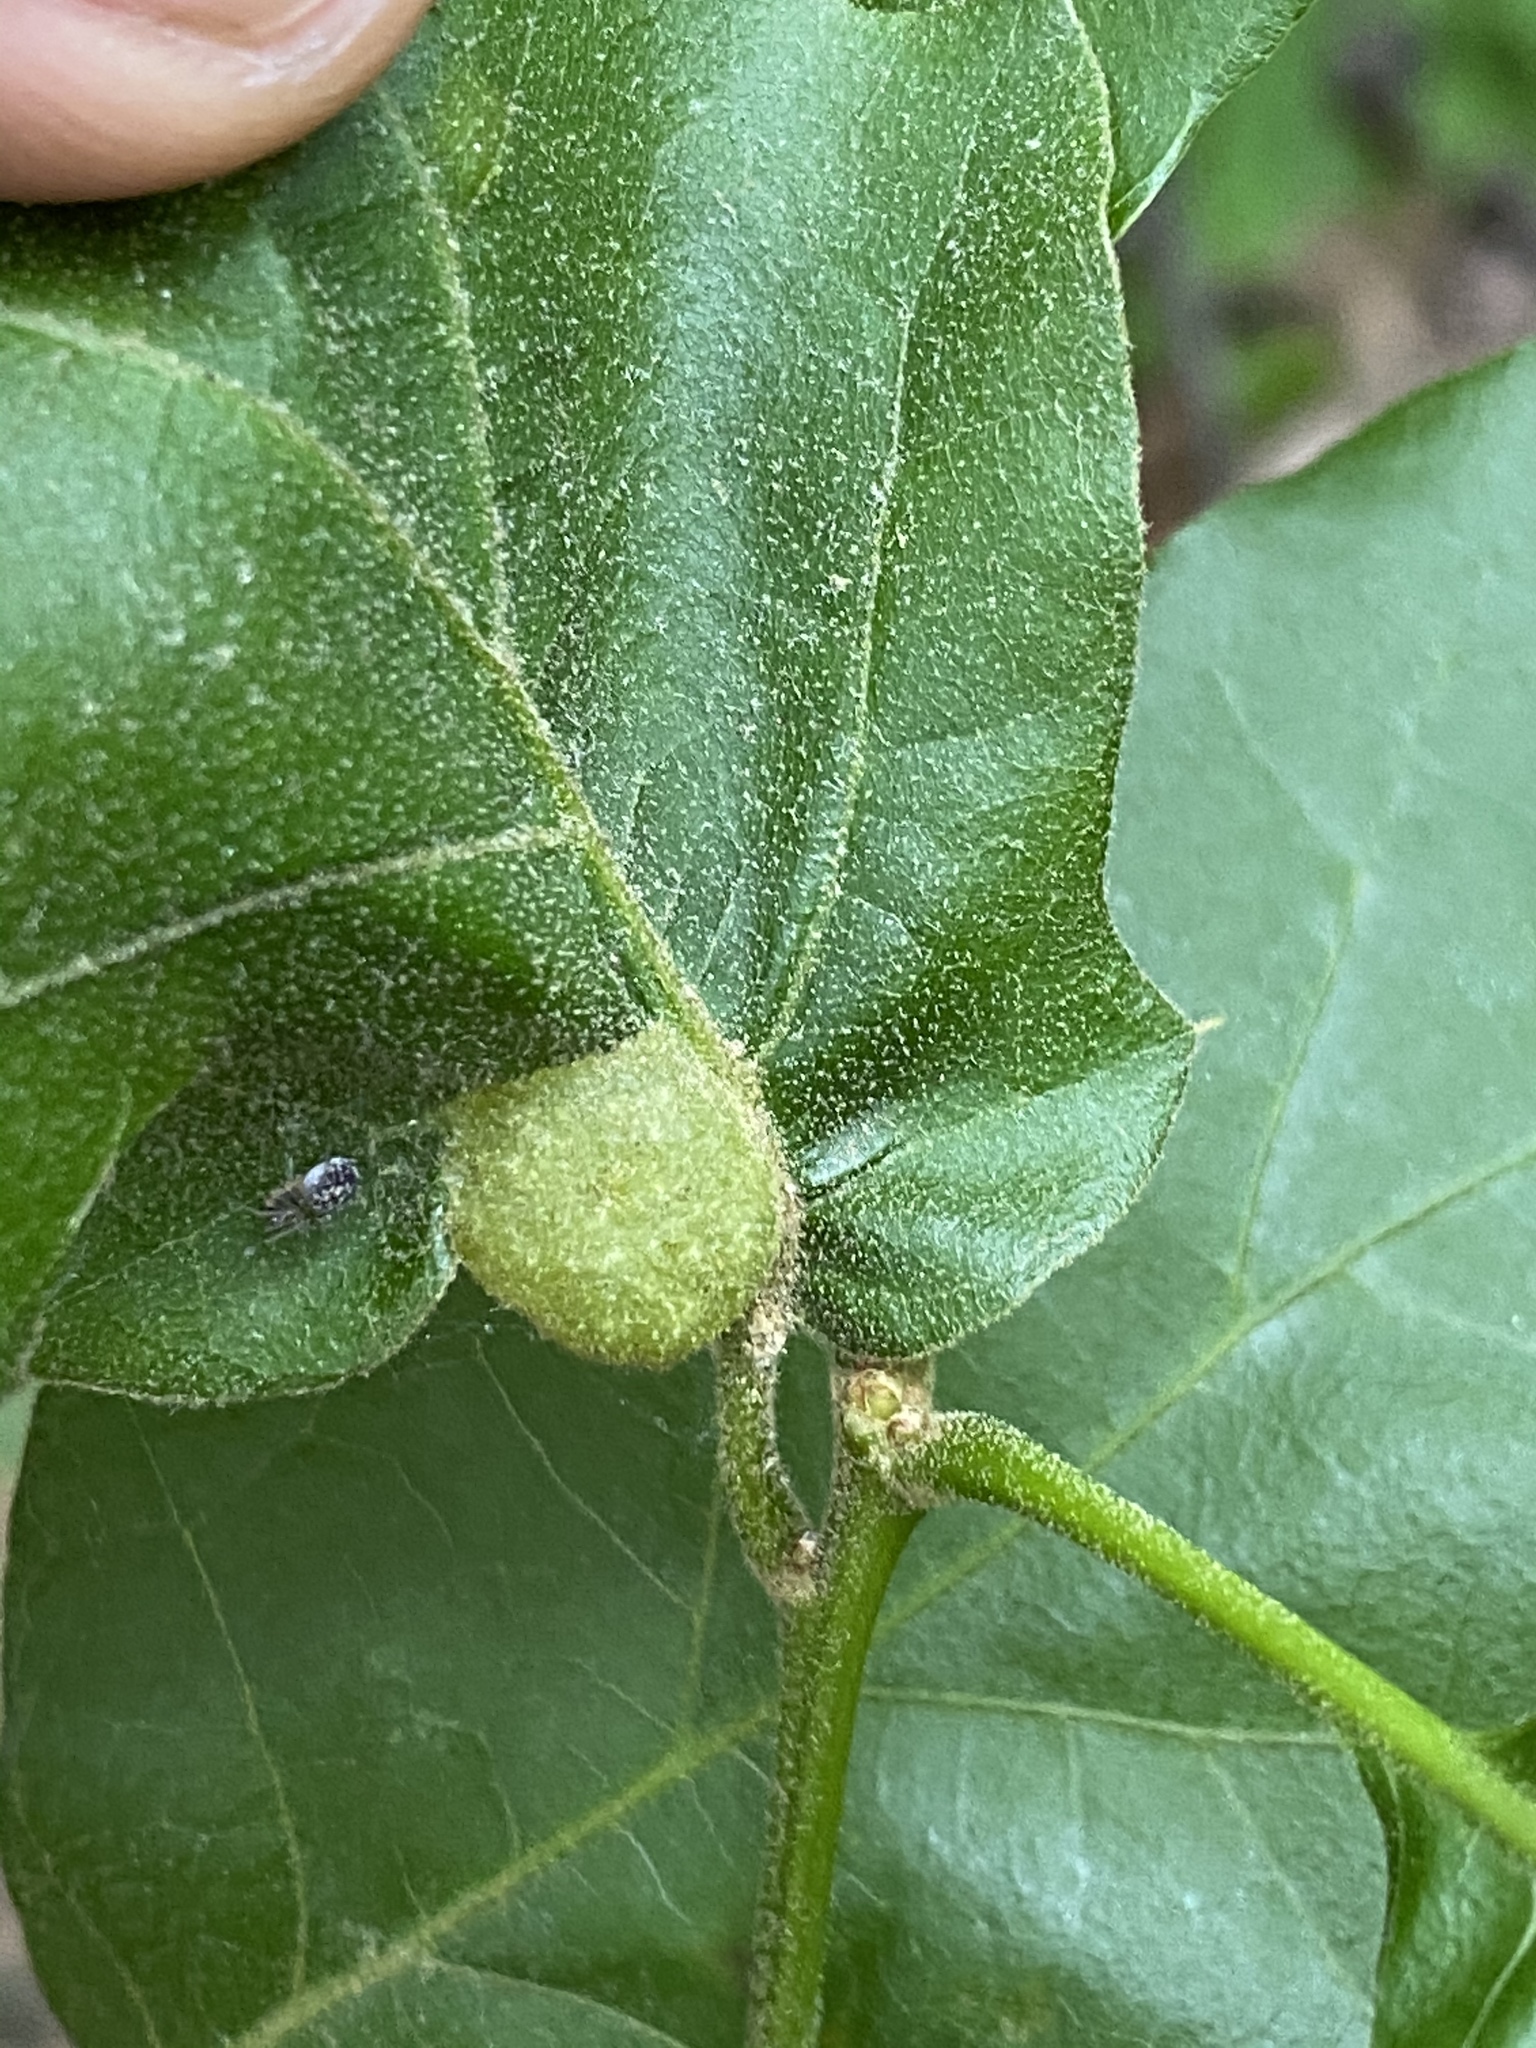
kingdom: Animalia
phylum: Arthropoda
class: Insecta
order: Hymenoptera
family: Cynipidae
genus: Dryocosmus
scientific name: Dryocosmus quercuspalustris
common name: Succulent oak gall wasp
